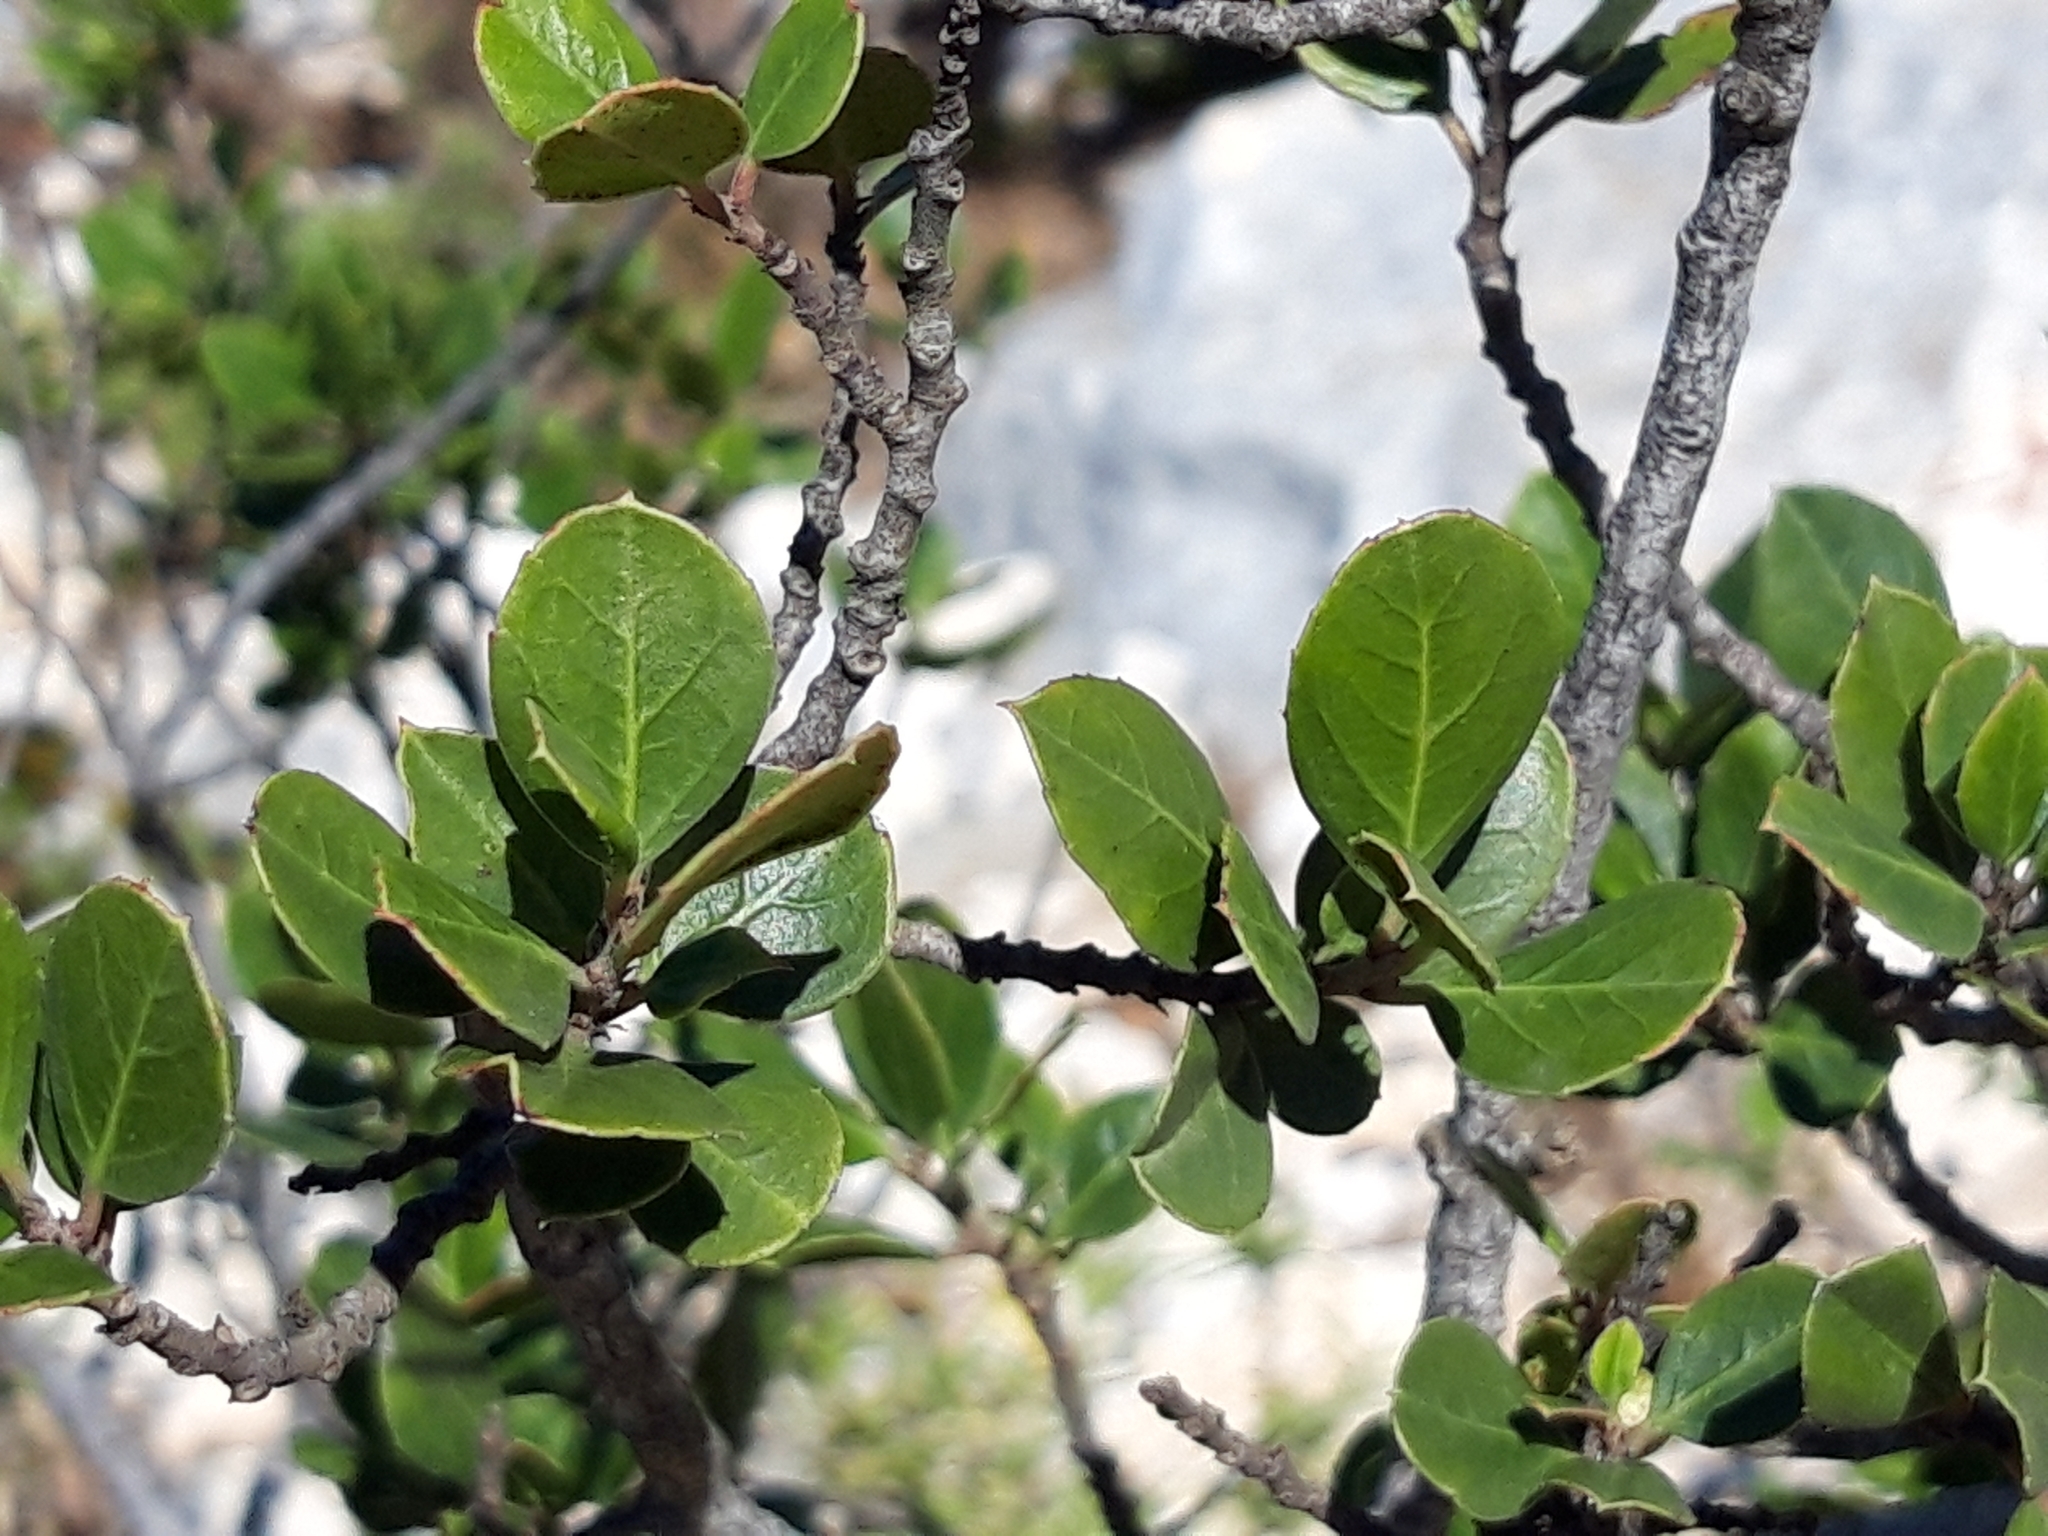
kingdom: Plantae
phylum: Tracheophyta
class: Magnoliopsida
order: Rosales
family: Rhamnaceae
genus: Rhamnus
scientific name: Rhamnus alaternus
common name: Mediterranean buckthorn
